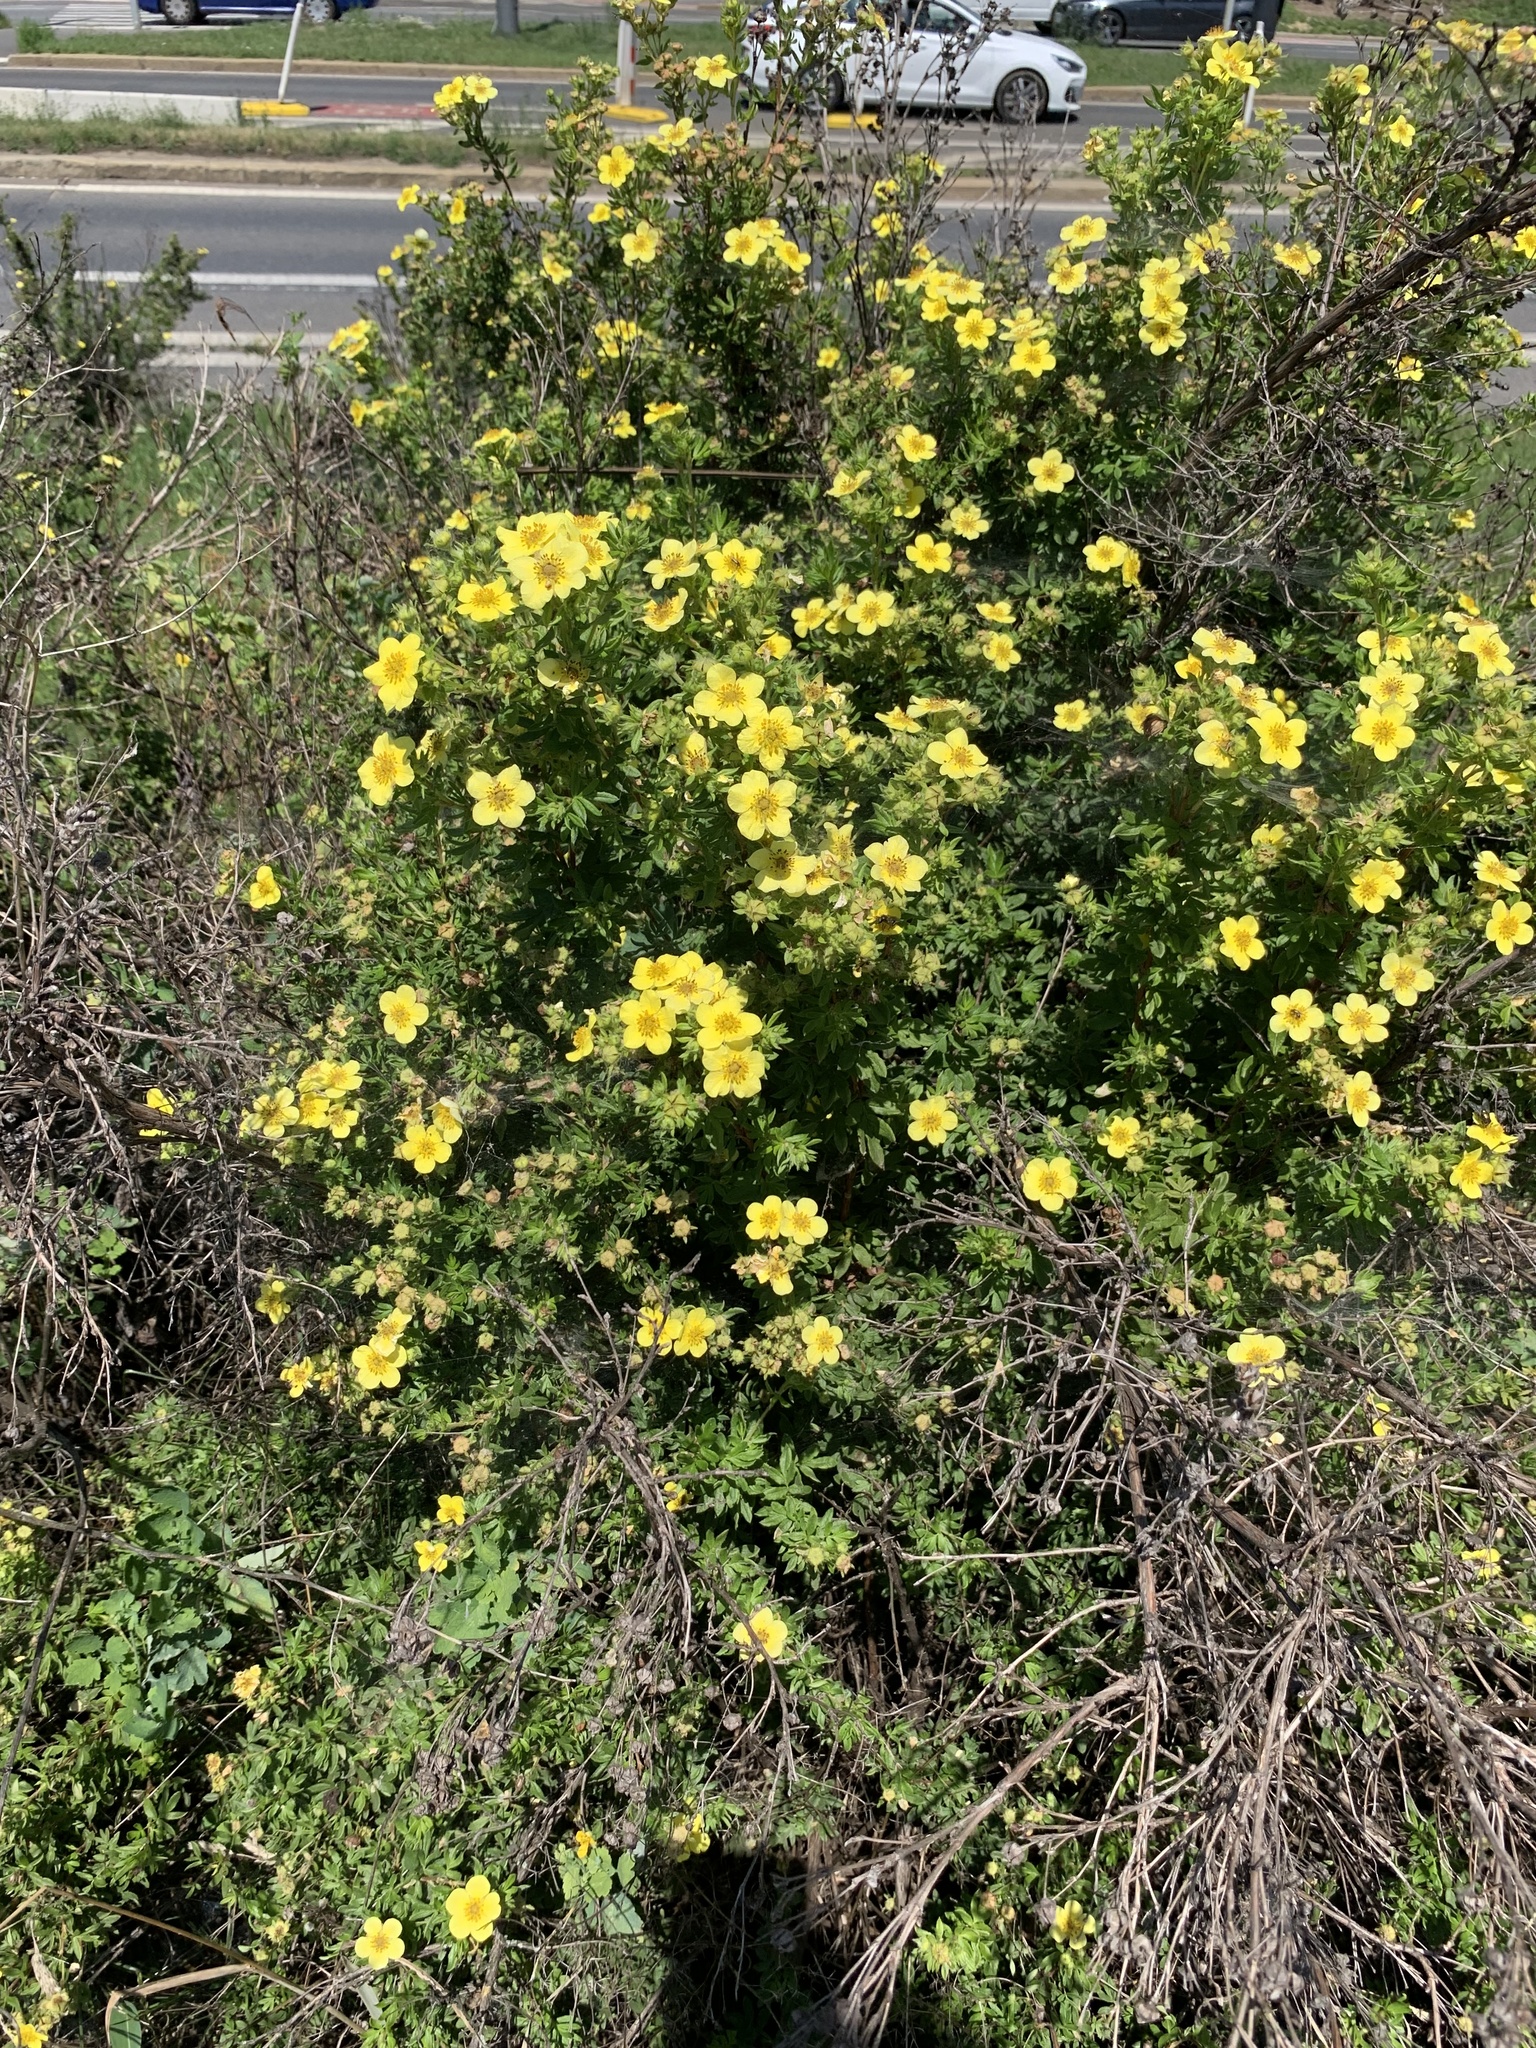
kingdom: Plantae
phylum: Tracheophyta
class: Magnoliopsida
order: Rosales
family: Rosaceae
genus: Dasiphora
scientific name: Dasiphora fruticosa
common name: Shrubby cinquefoil
